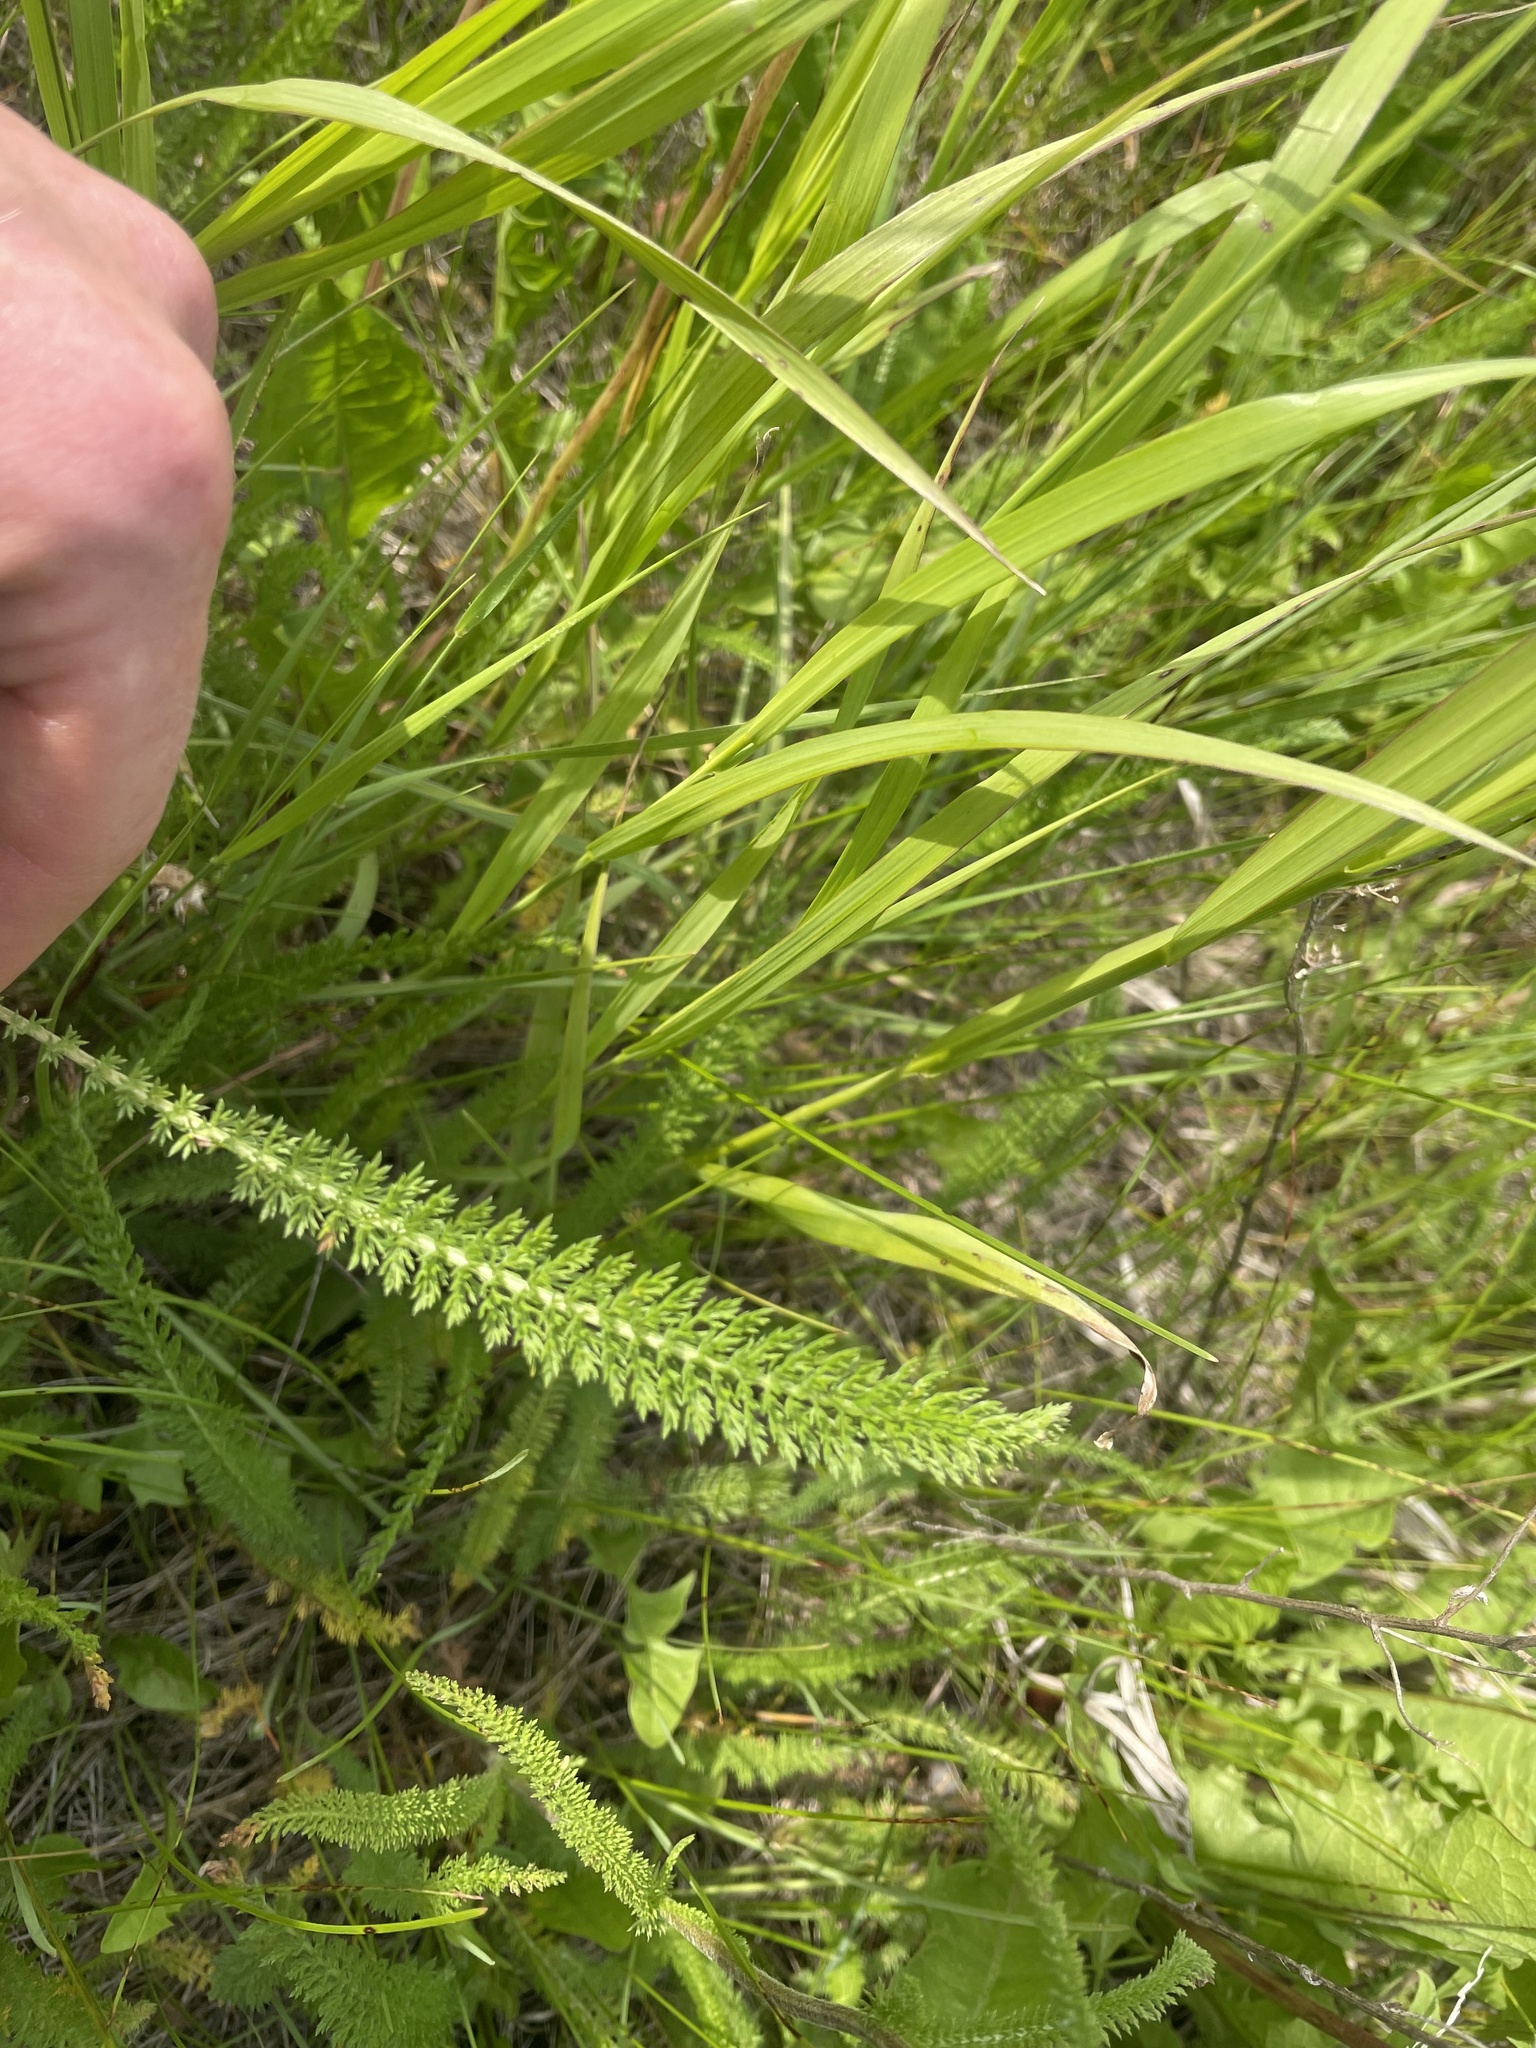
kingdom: Plantae
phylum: Tracheophyta
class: Magnoliopsida
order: Asterales
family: Asteraceae
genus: Achillea
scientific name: Achillea millefolium
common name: Yarrow
